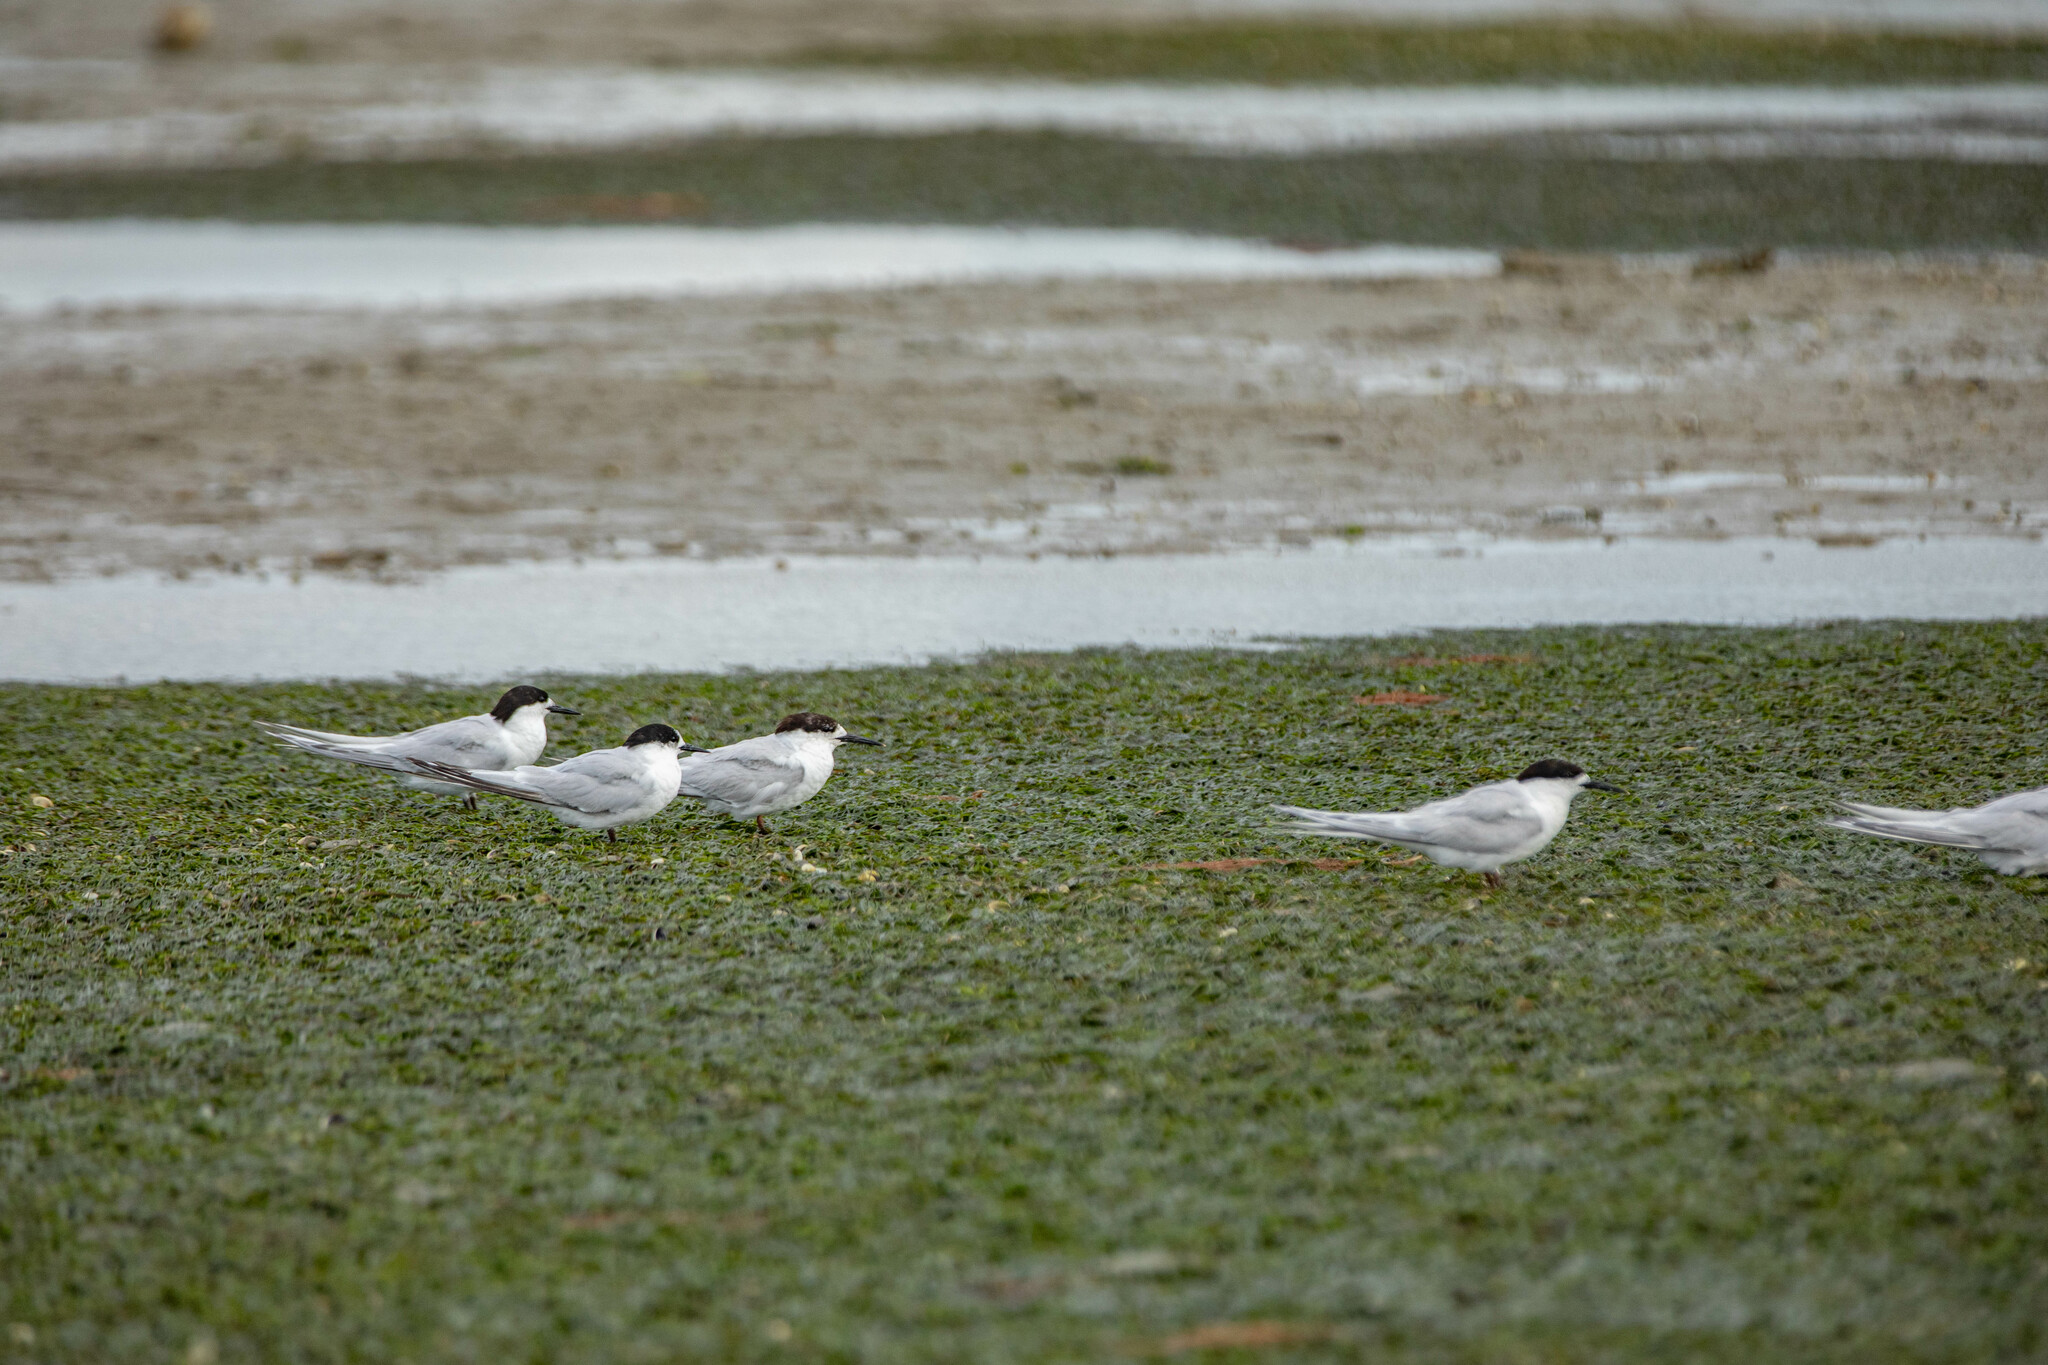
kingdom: Animalia
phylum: Chordata
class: Aves
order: Charadriiformes
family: Laridae
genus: Sterna
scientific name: Sterna striata
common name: White-fronted tern
